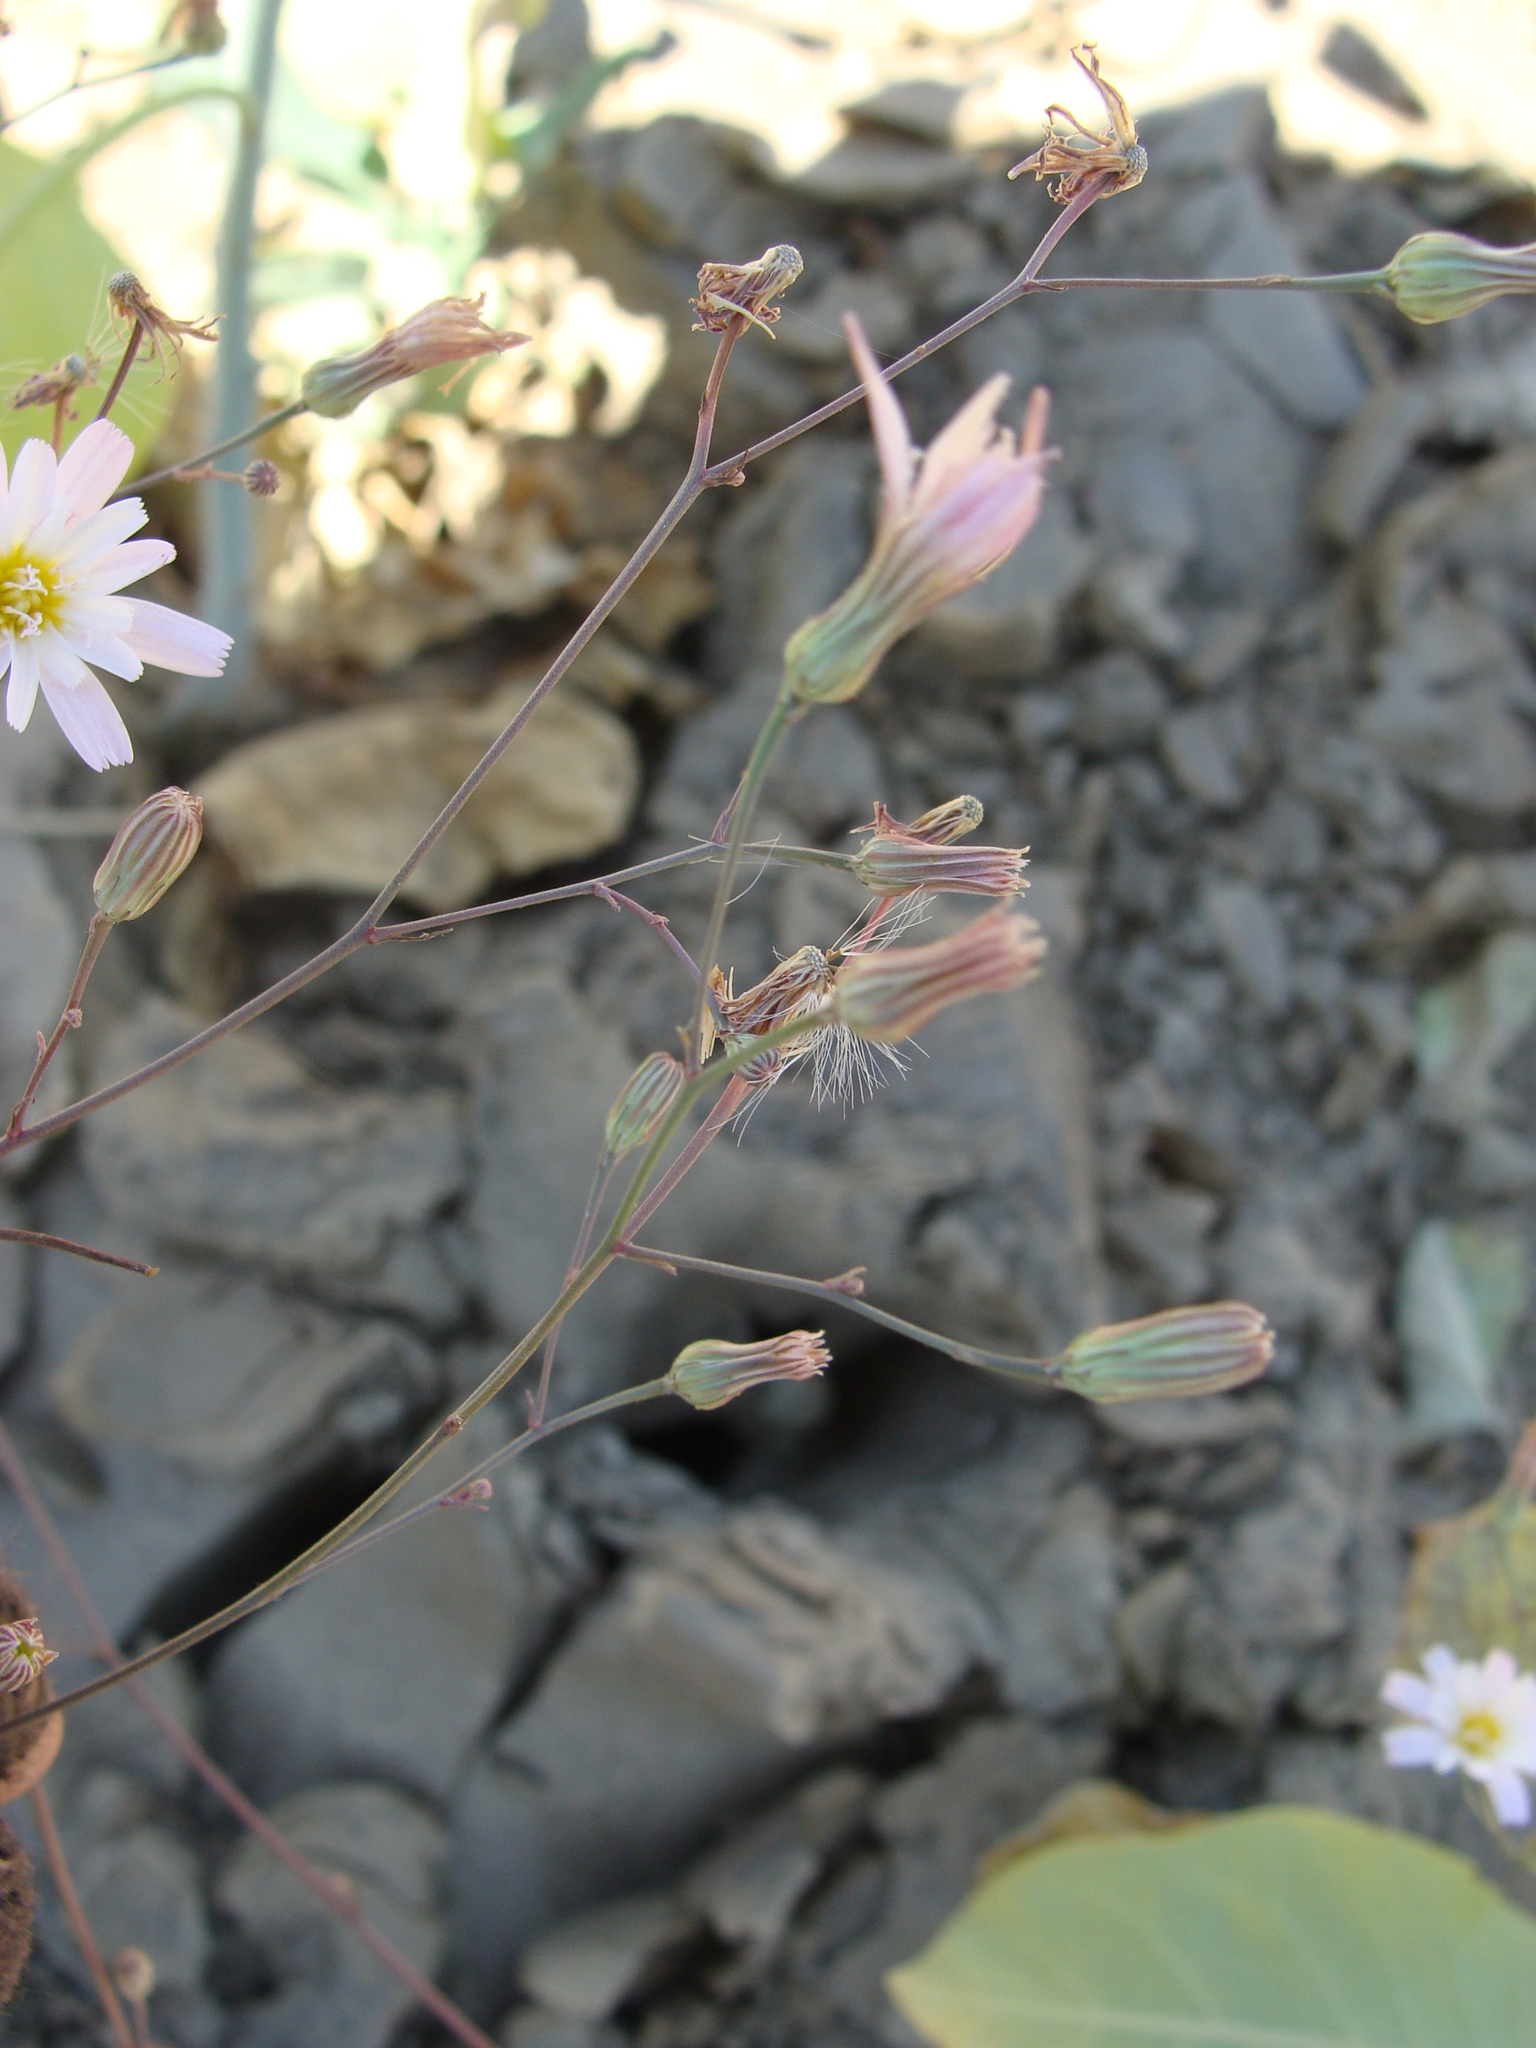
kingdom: Plantae
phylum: Tracheophyta
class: Magnoliopsida
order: Asterales
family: Asteraceae
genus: Malacothrix
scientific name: Malacothrix xanti
